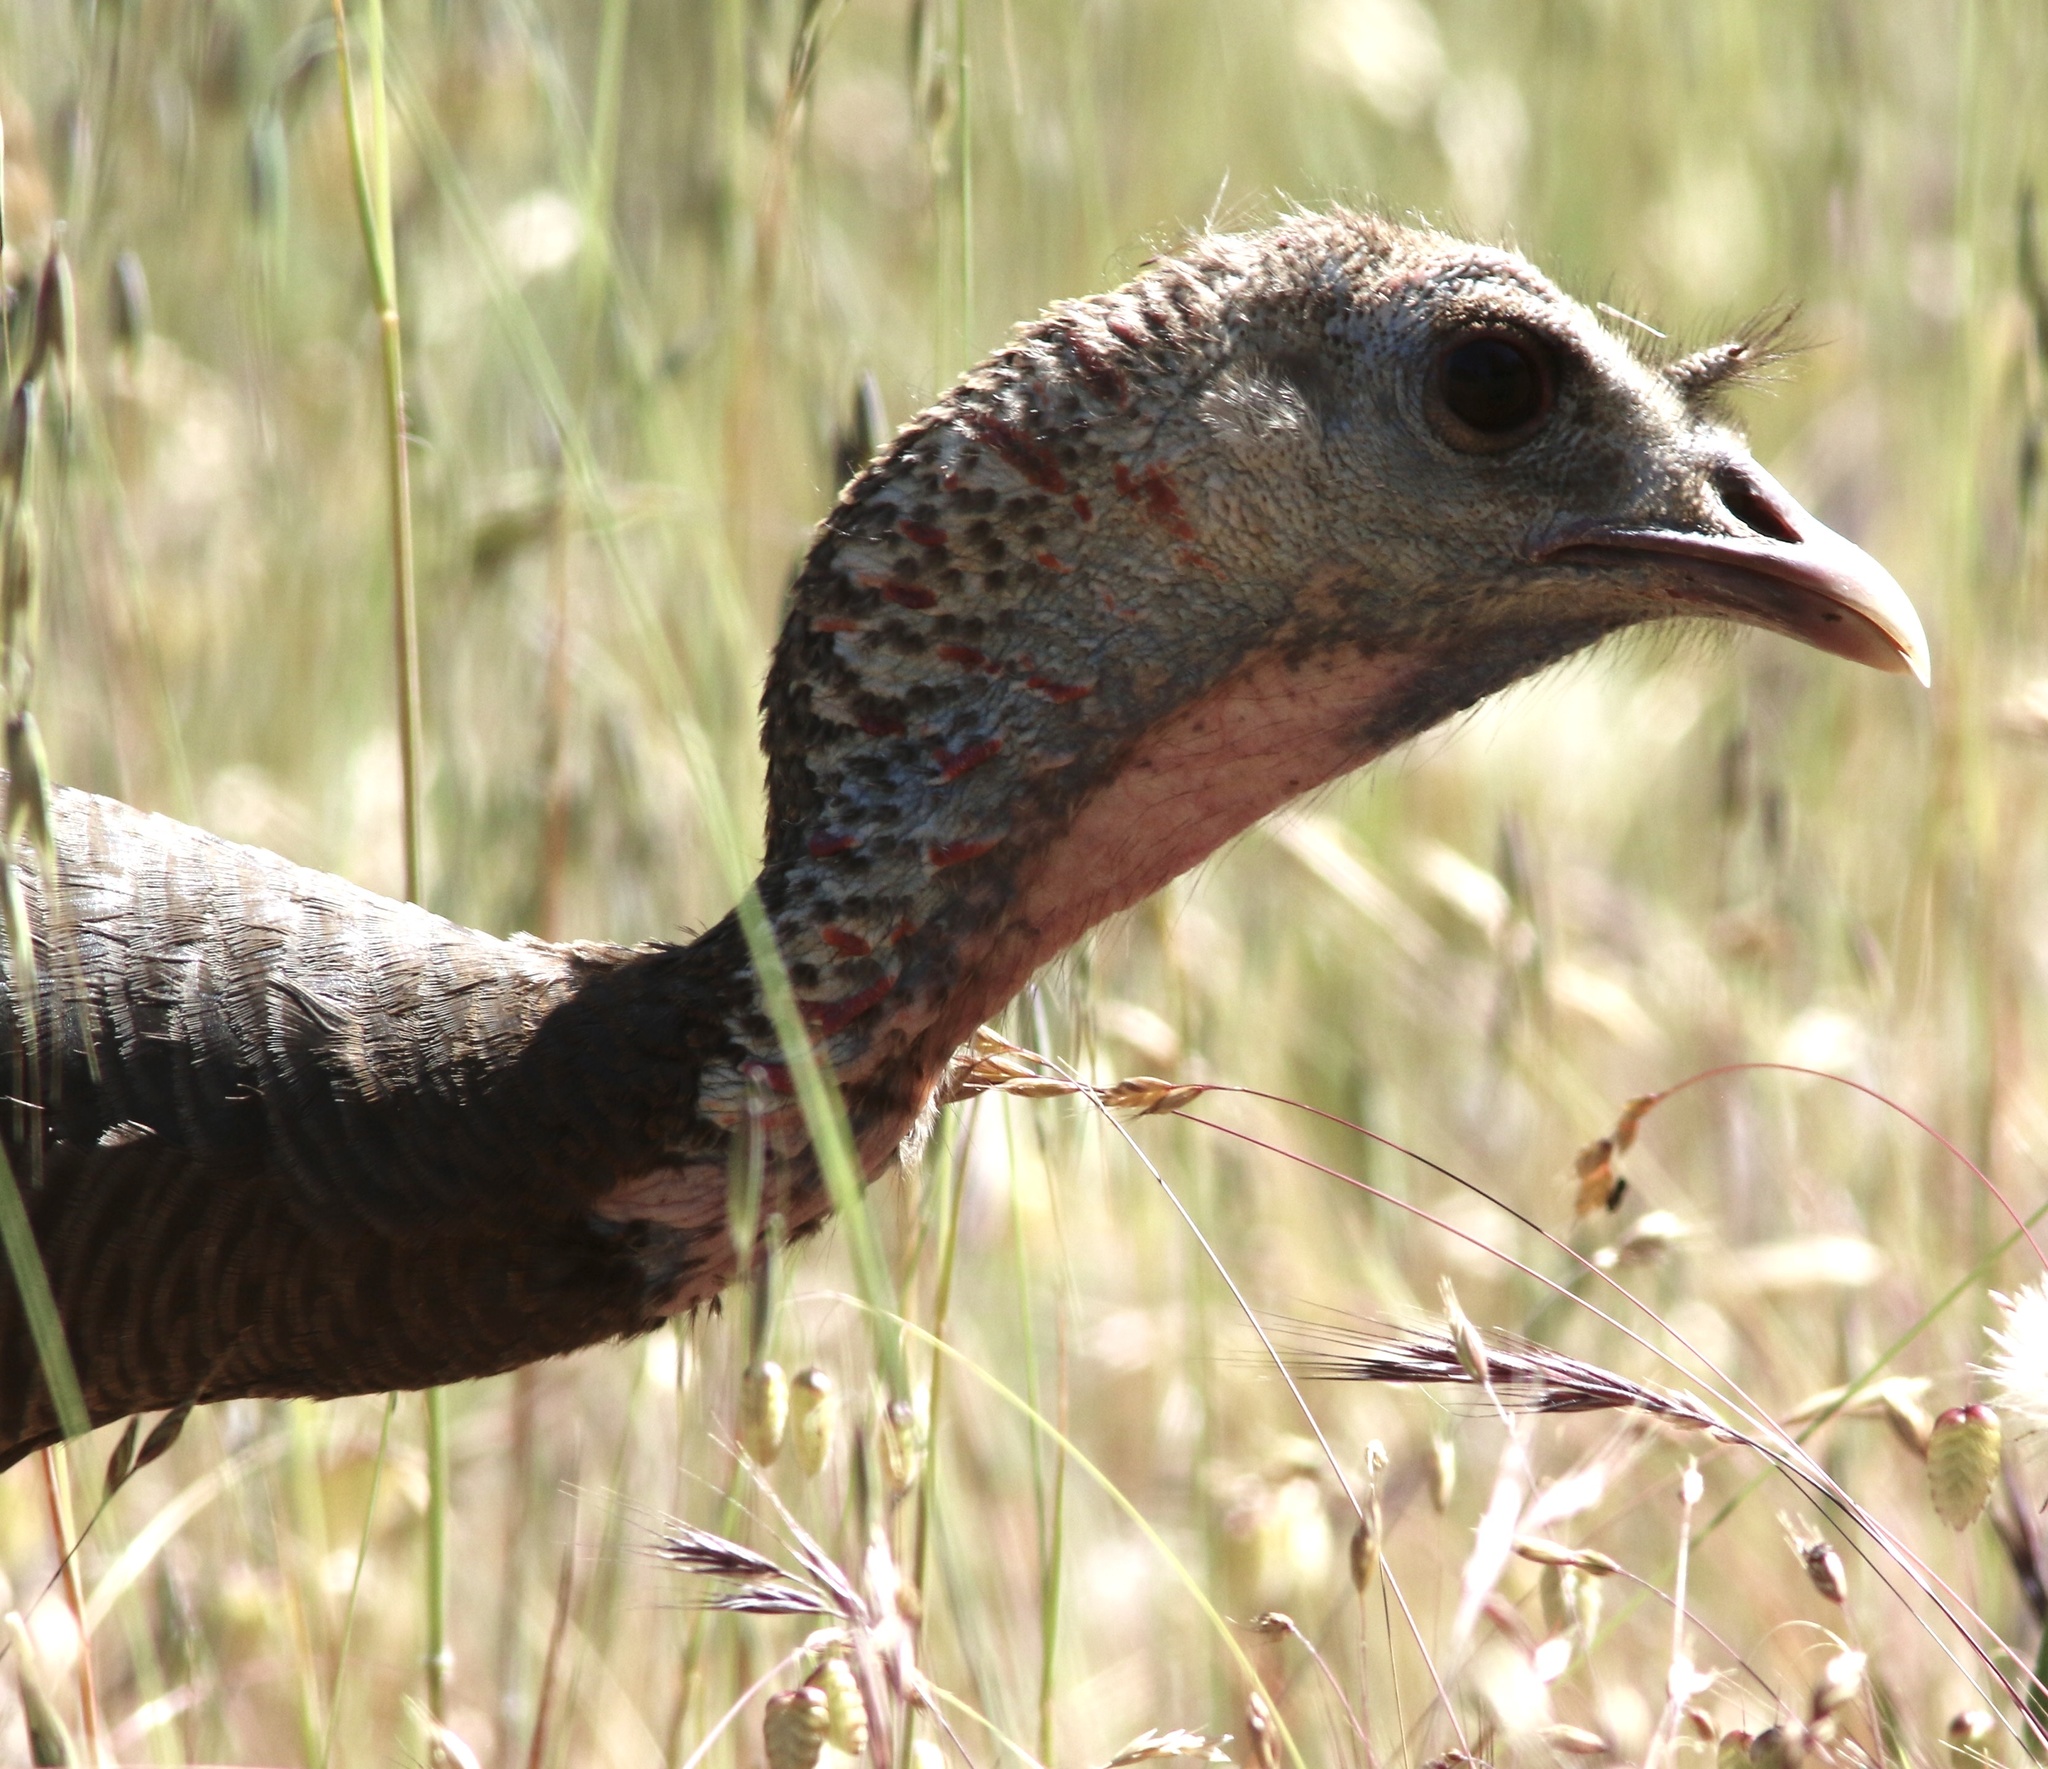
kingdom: Animalia
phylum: Chordata
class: Aves
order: Galliformes
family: Phasianidae
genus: Meleagris
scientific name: Meleagris gallopavo
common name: Wild turkey
